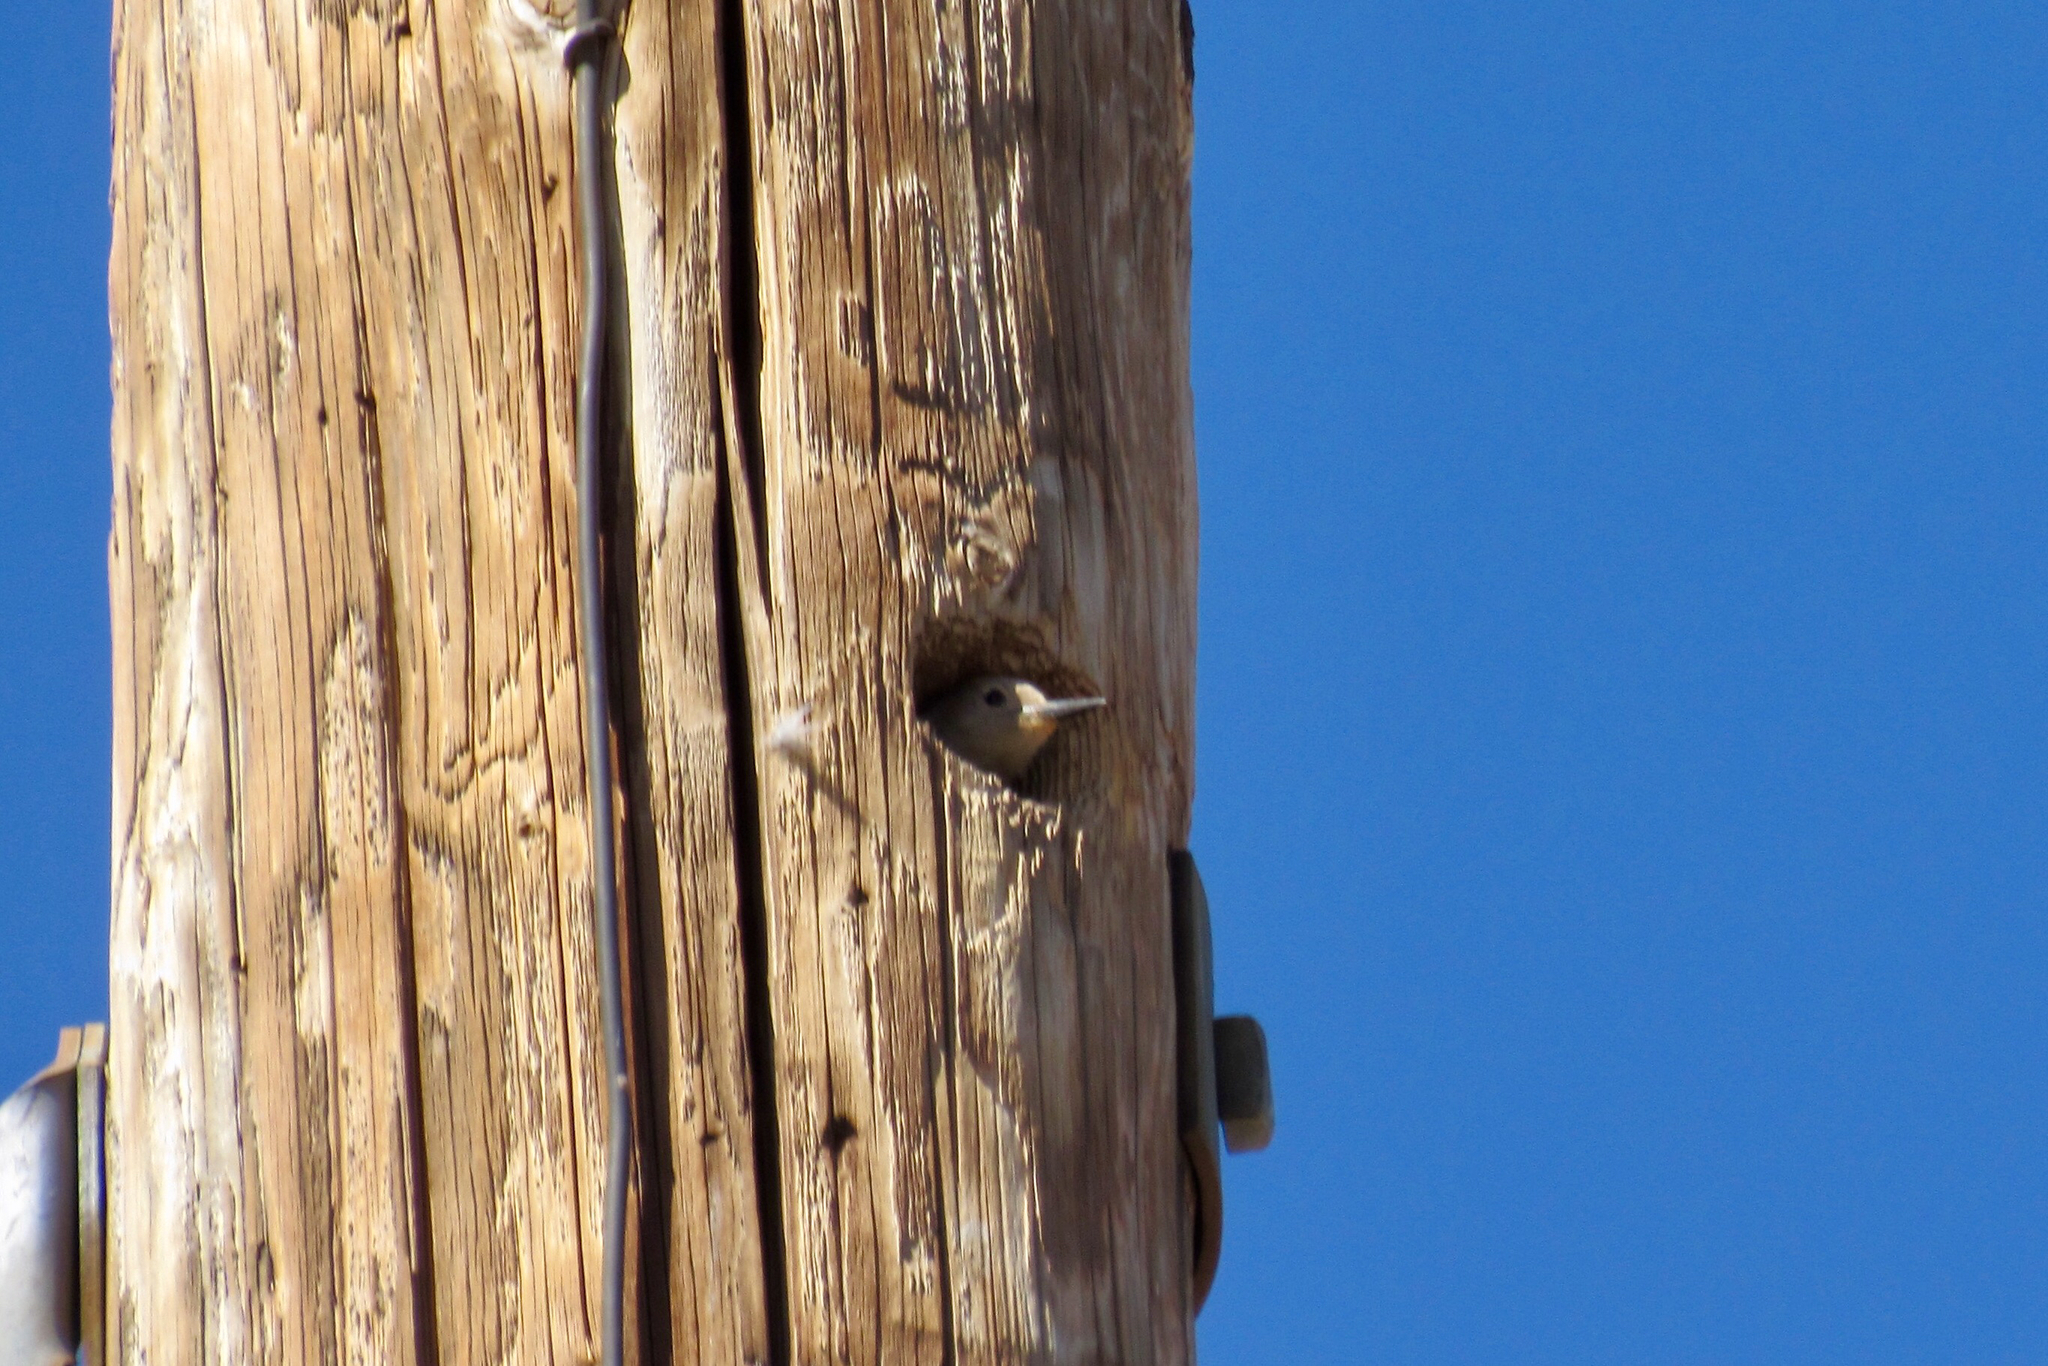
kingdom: Animalia
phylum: Chordata
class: Aves
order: Piciformes
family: Picidae
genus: Melanerpes
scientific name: Melanerpes uropygialis
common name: Gila woodpecker
